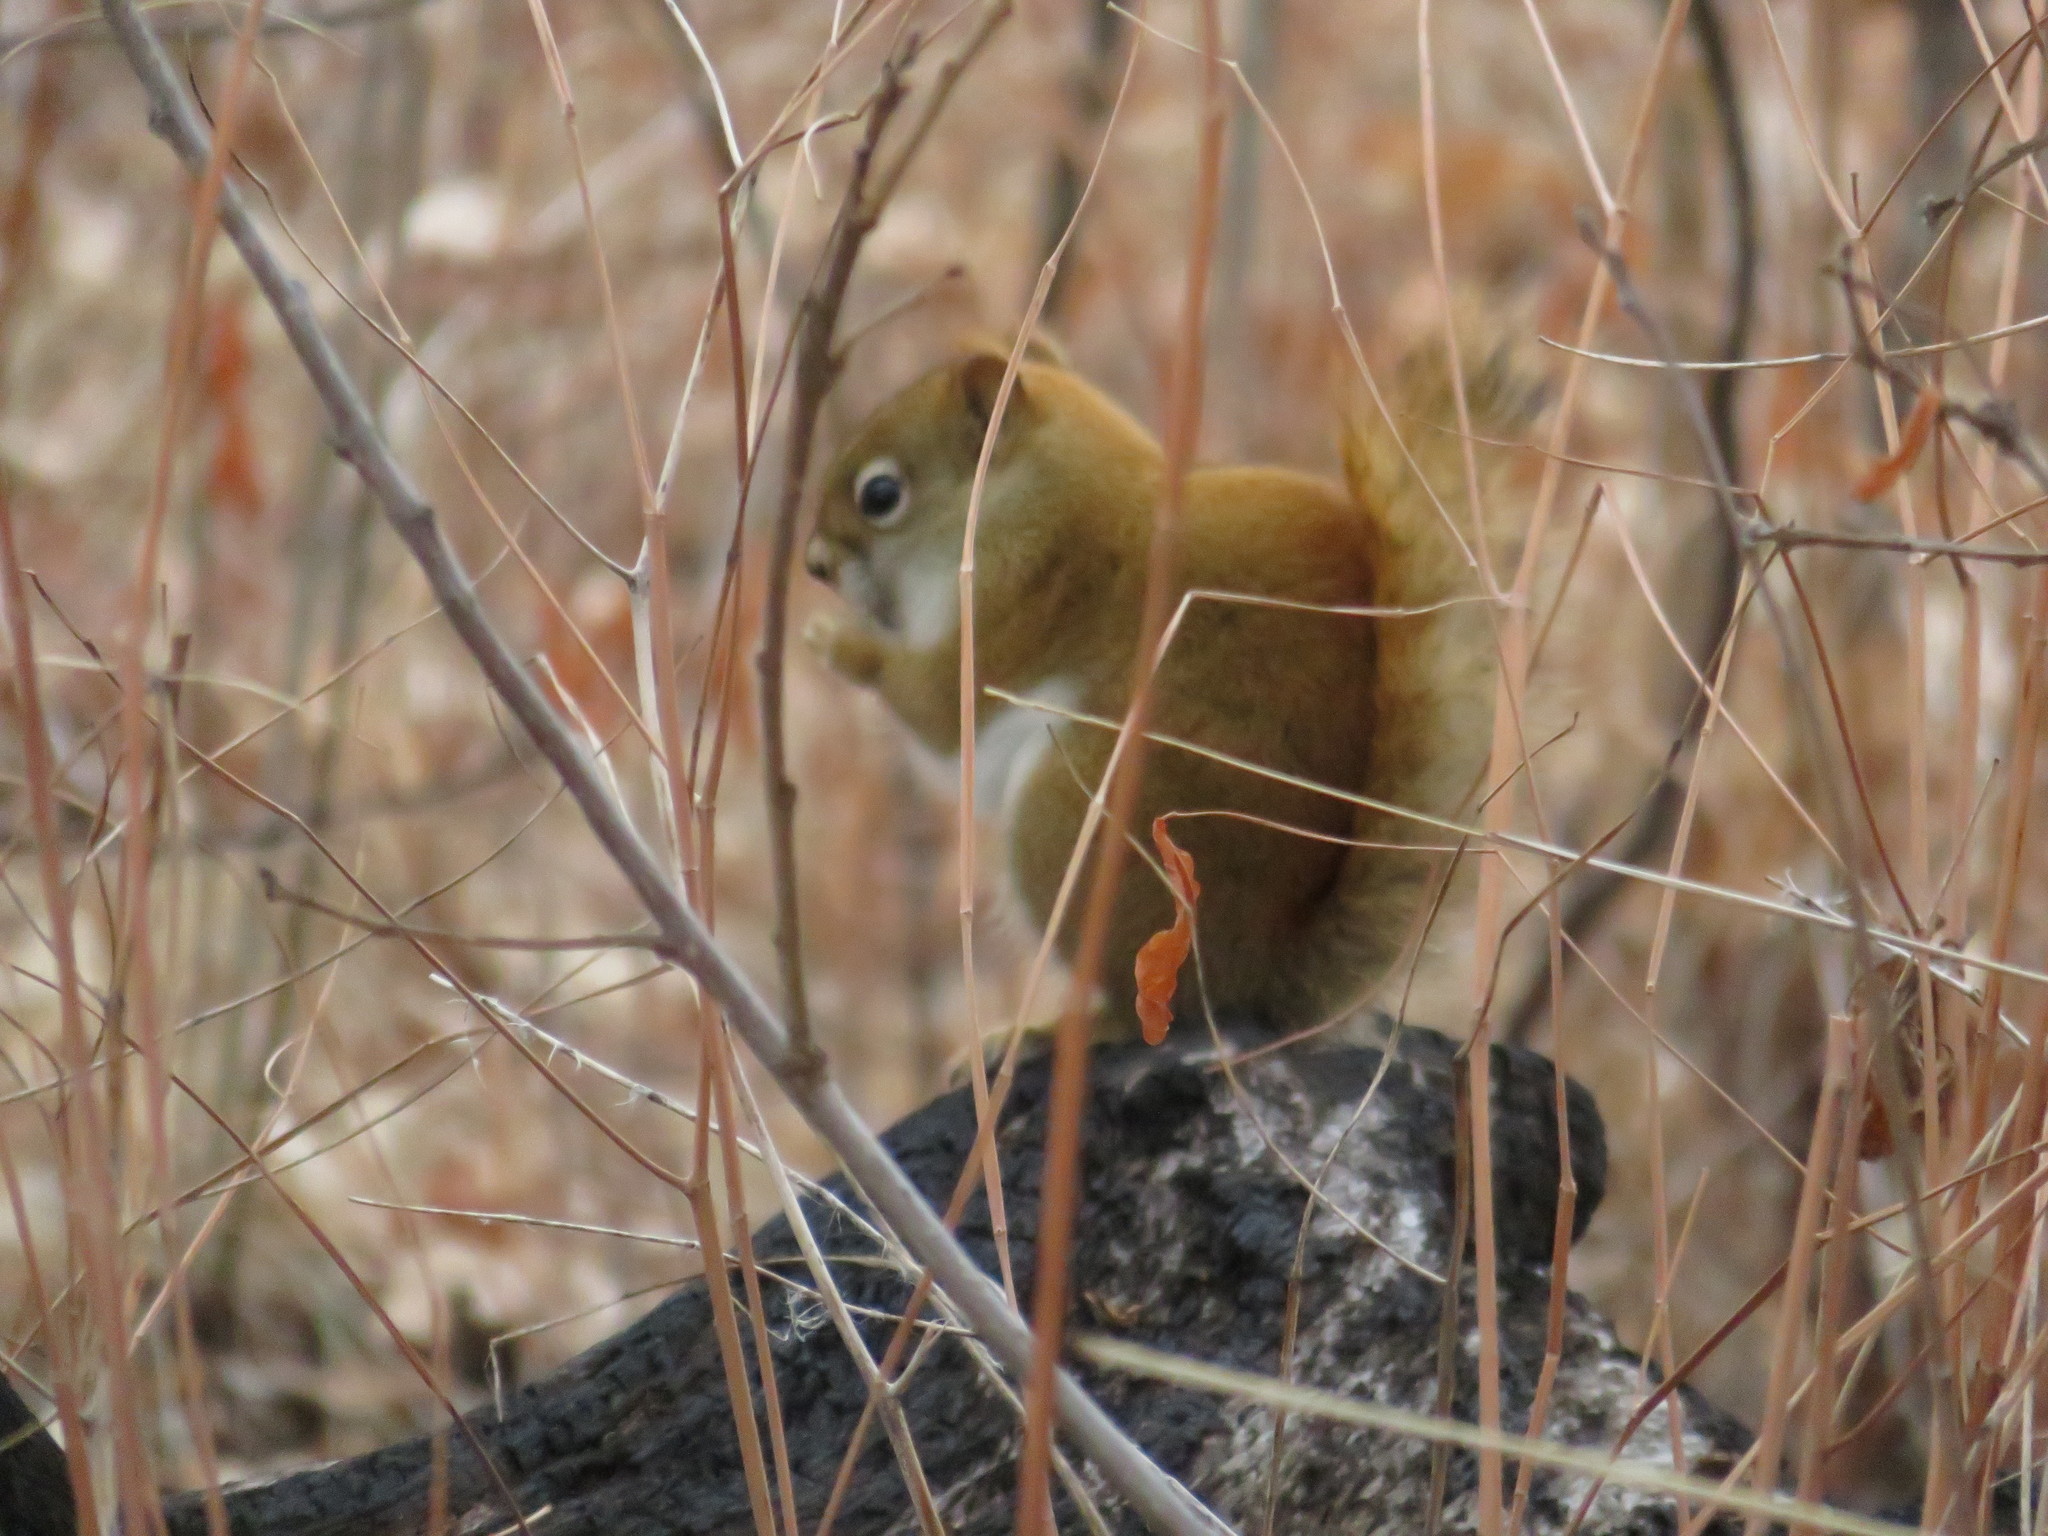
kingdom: Animalia
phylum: Chordata
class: Mammalia
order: Rodentia
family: Sciuridae
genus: Tamiasciurus
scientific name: Tamiasciurus hudsonicus
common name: Red squirrel
